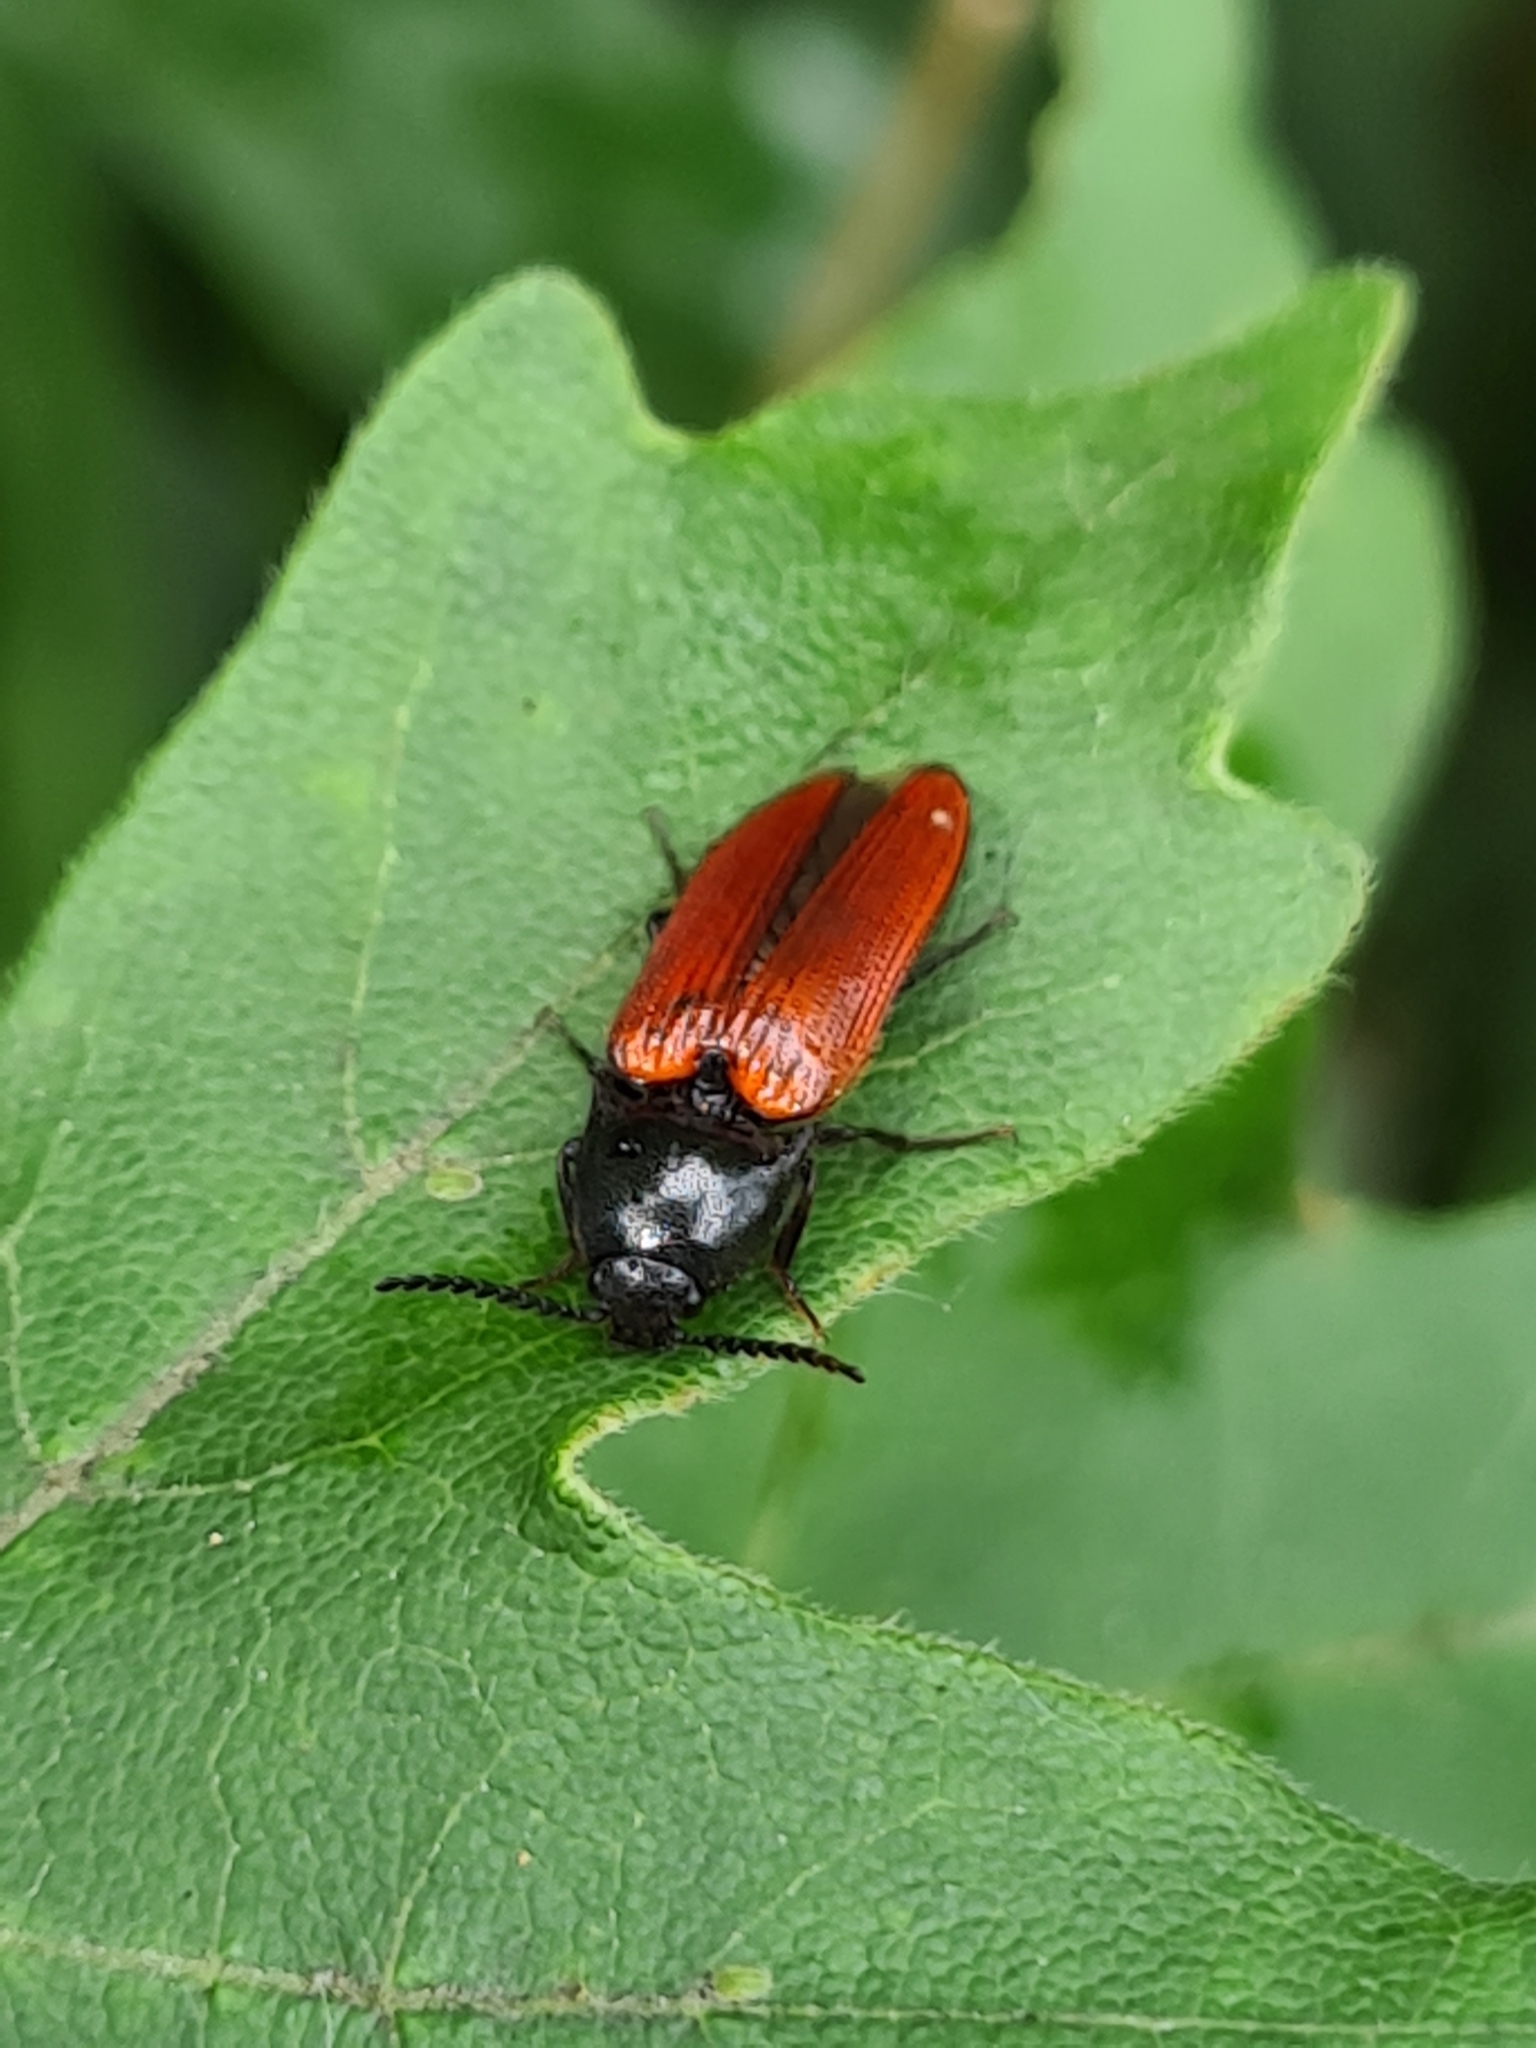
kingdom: Animalia
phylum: Arthropoda
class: Insecta
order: Coleoptera
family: Elateridae
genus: Ampedus
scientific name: Ampedus pomorum
